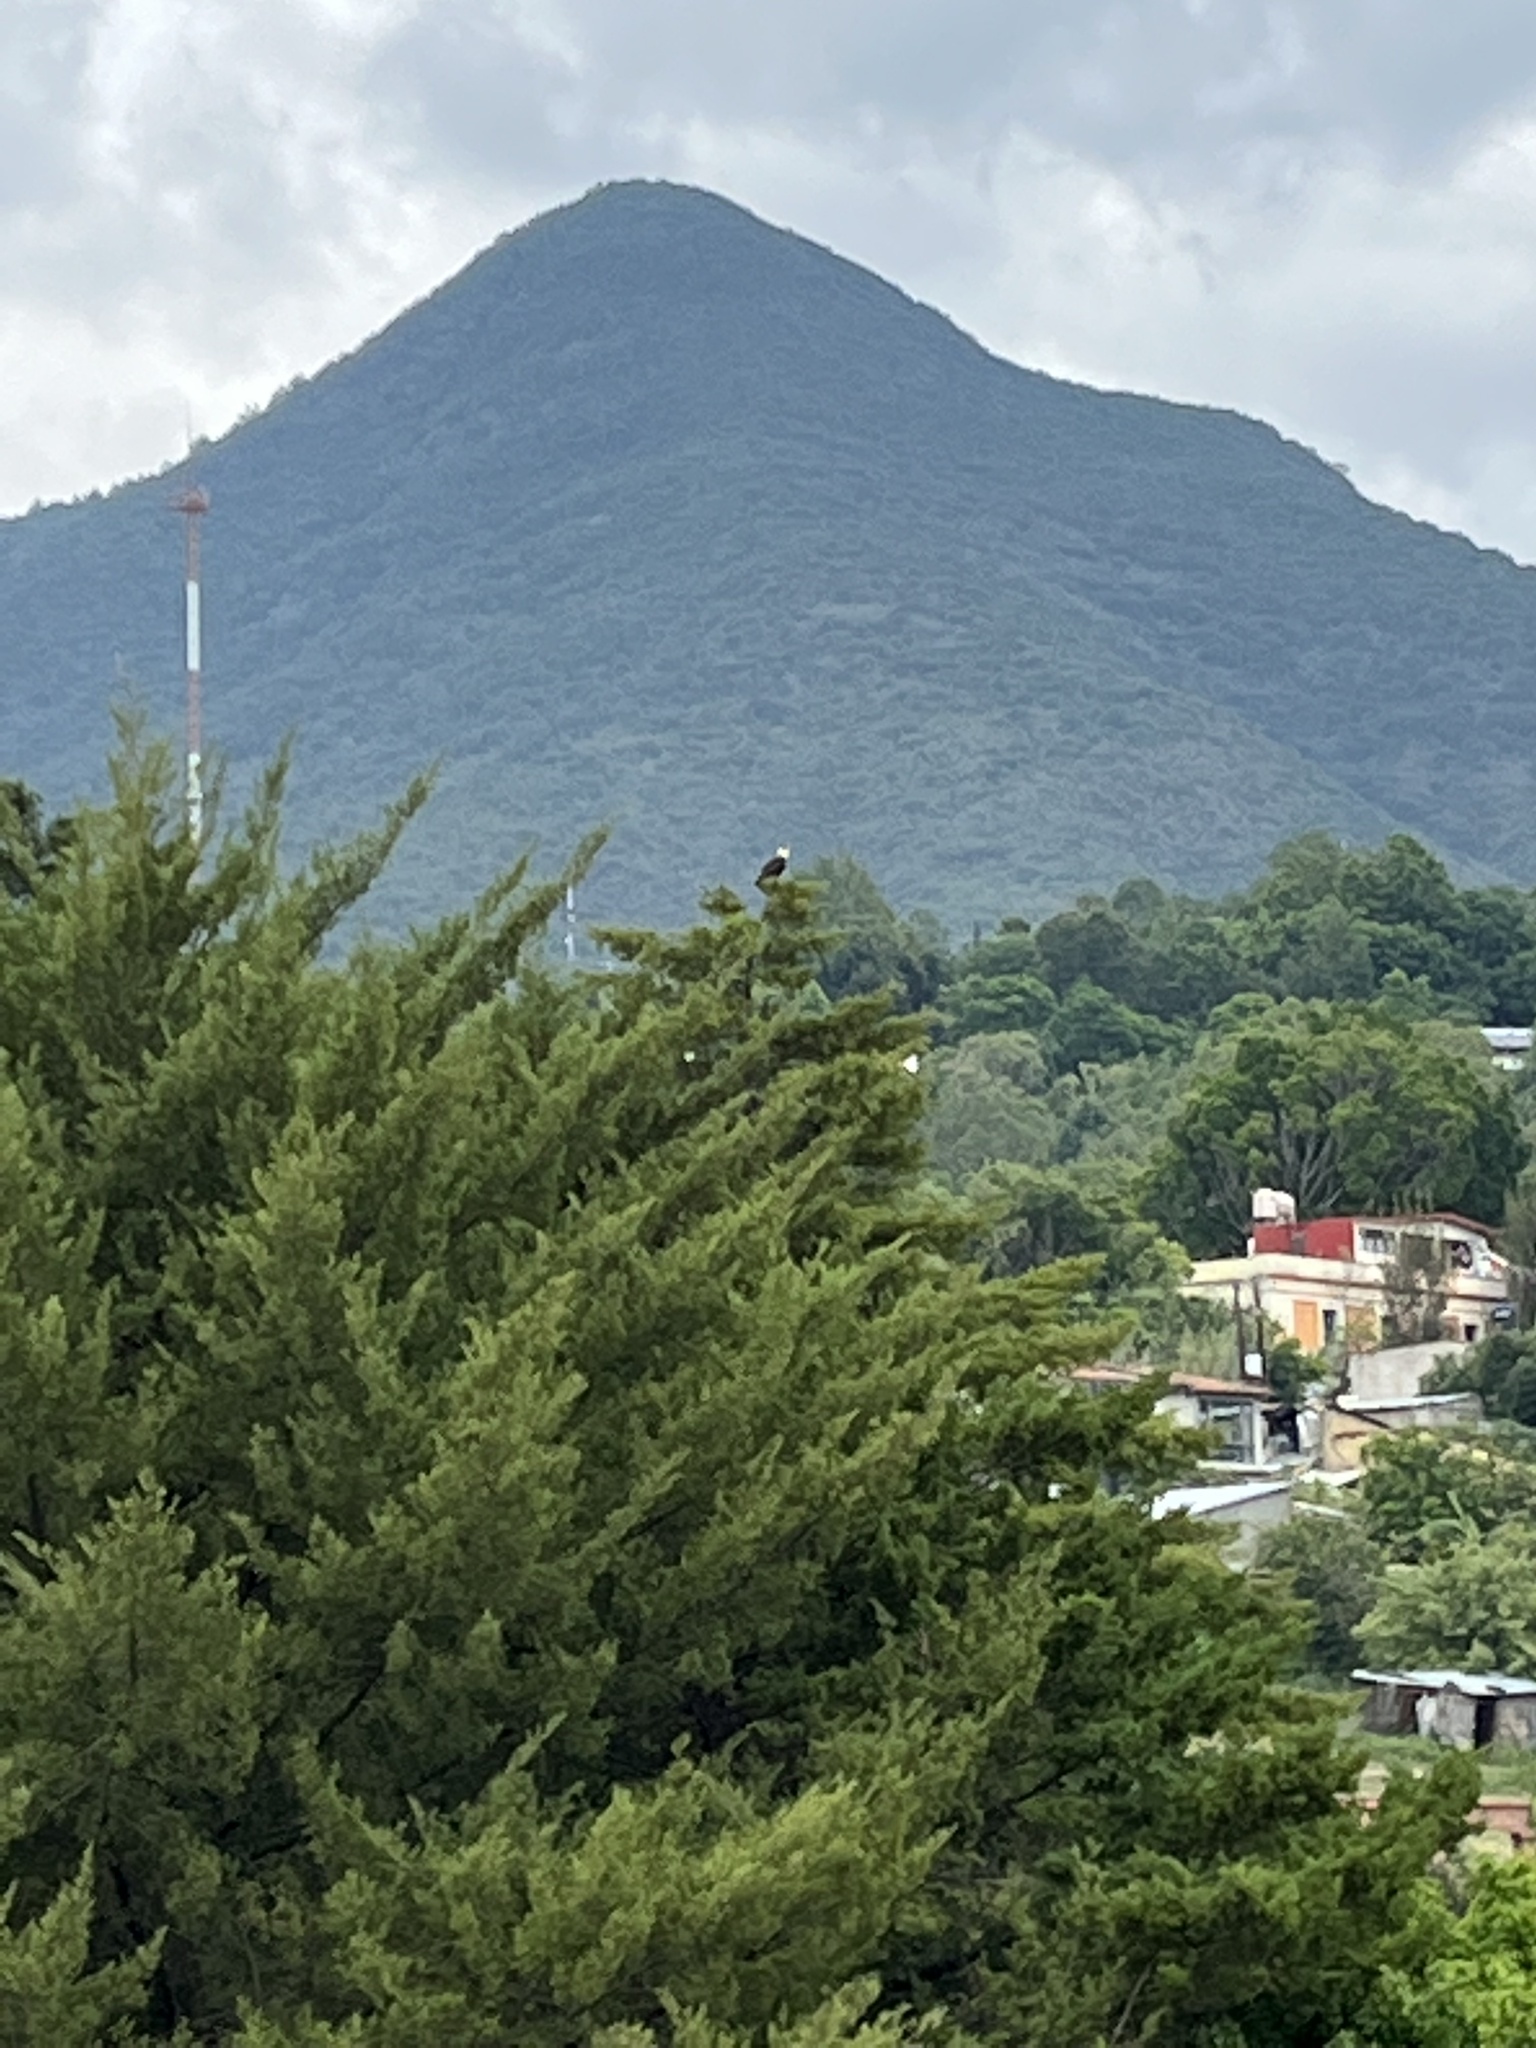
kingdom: Animalia
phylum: Chordata
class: Aves
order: Falconiformes
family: Falconidae
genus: Caracara
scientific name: Caracara plancus
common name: Southern caracara
